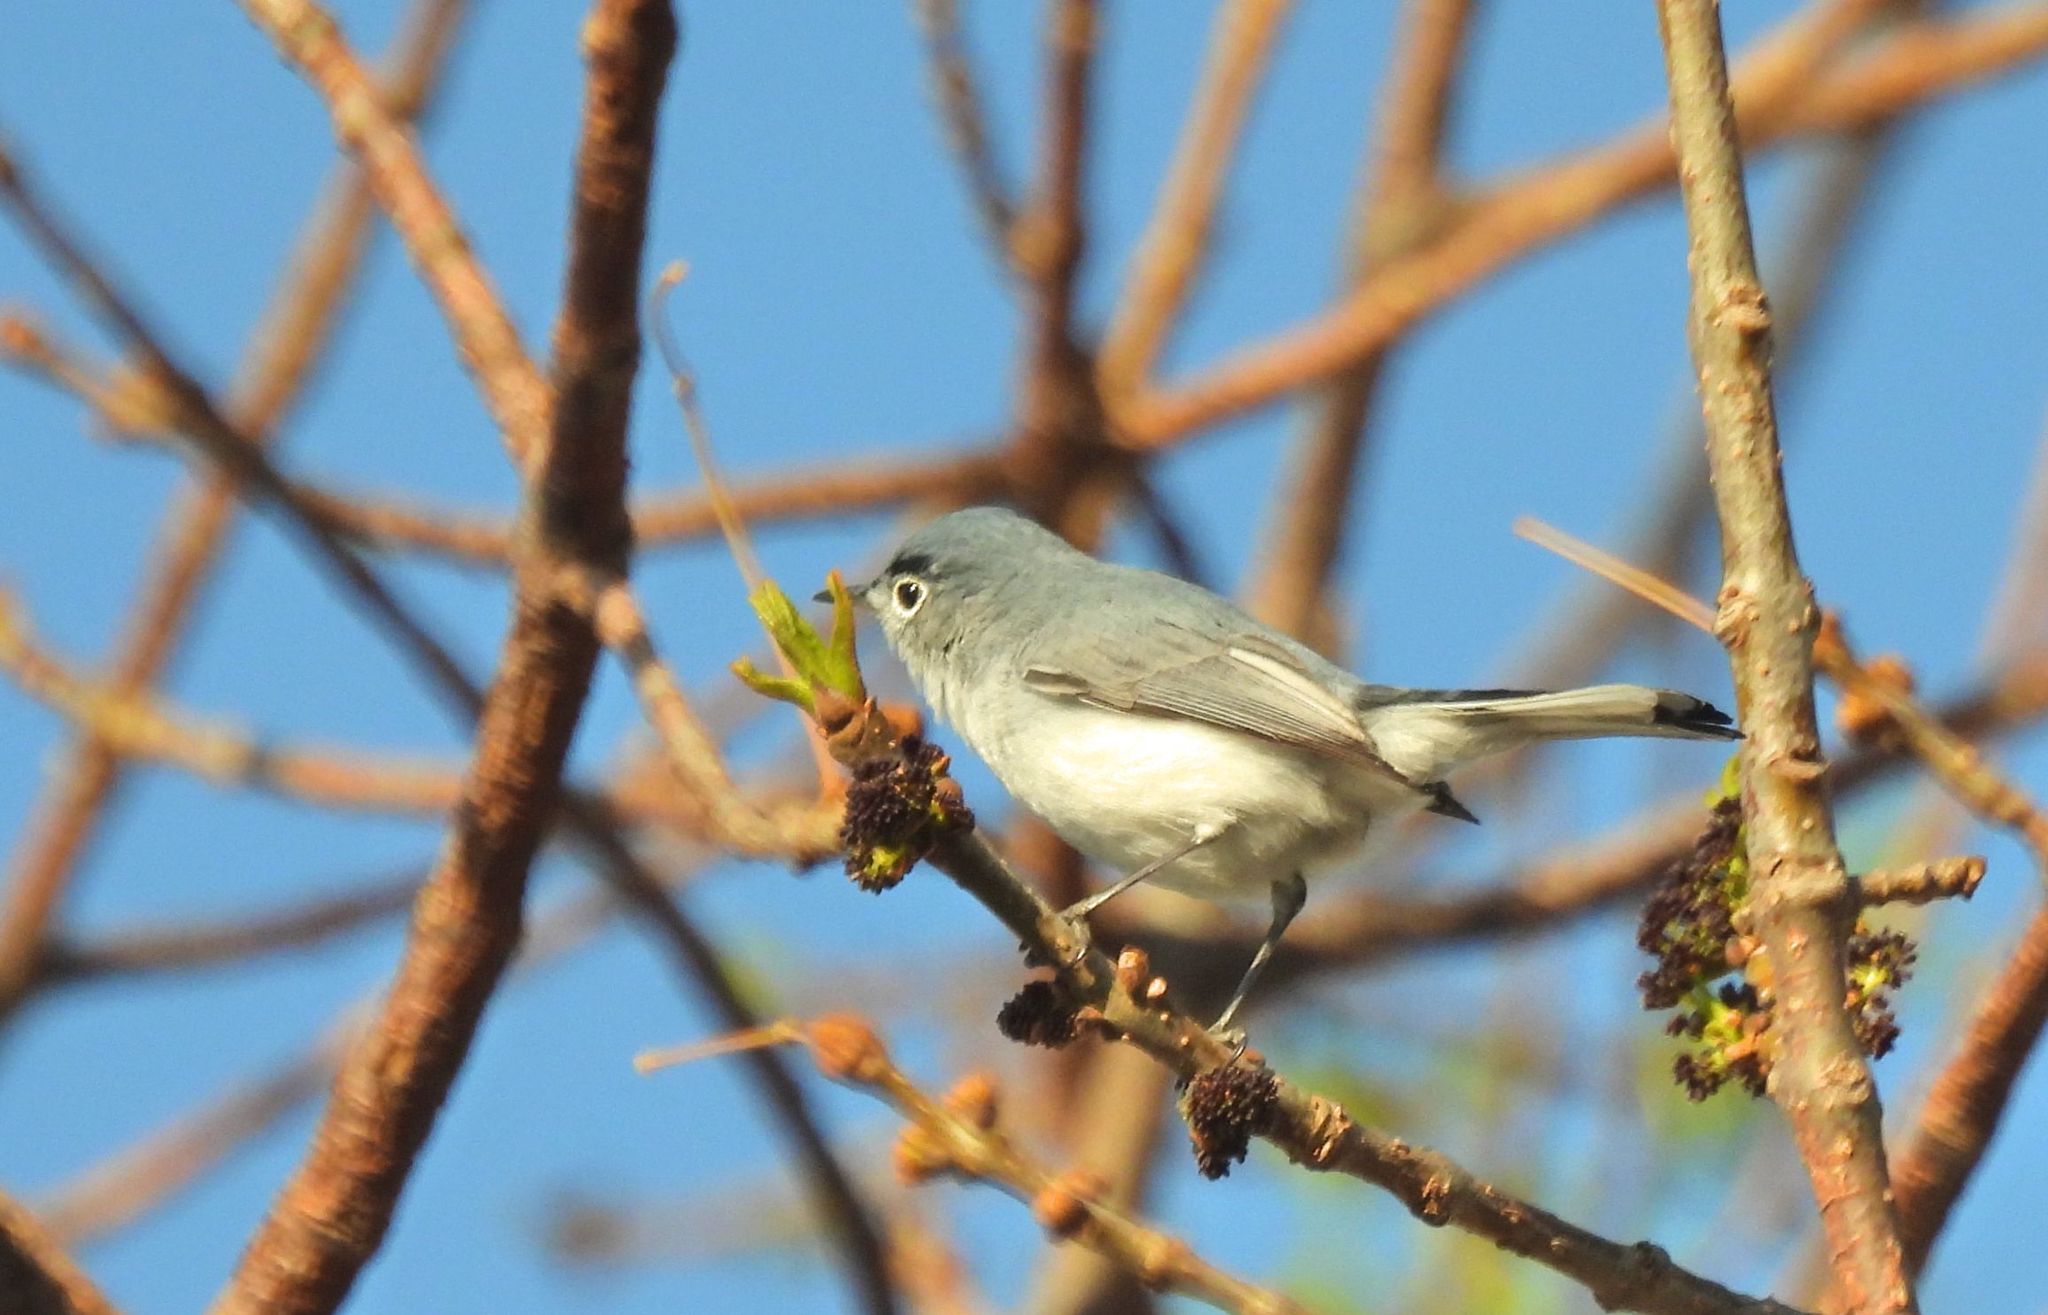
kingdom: Animalia
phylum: Chordata
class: Aves
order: Passeriformes
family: Polioptilidae
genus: Polioptila
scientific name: Polioptila caerulea
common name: Blue-gray gnatcatcher
